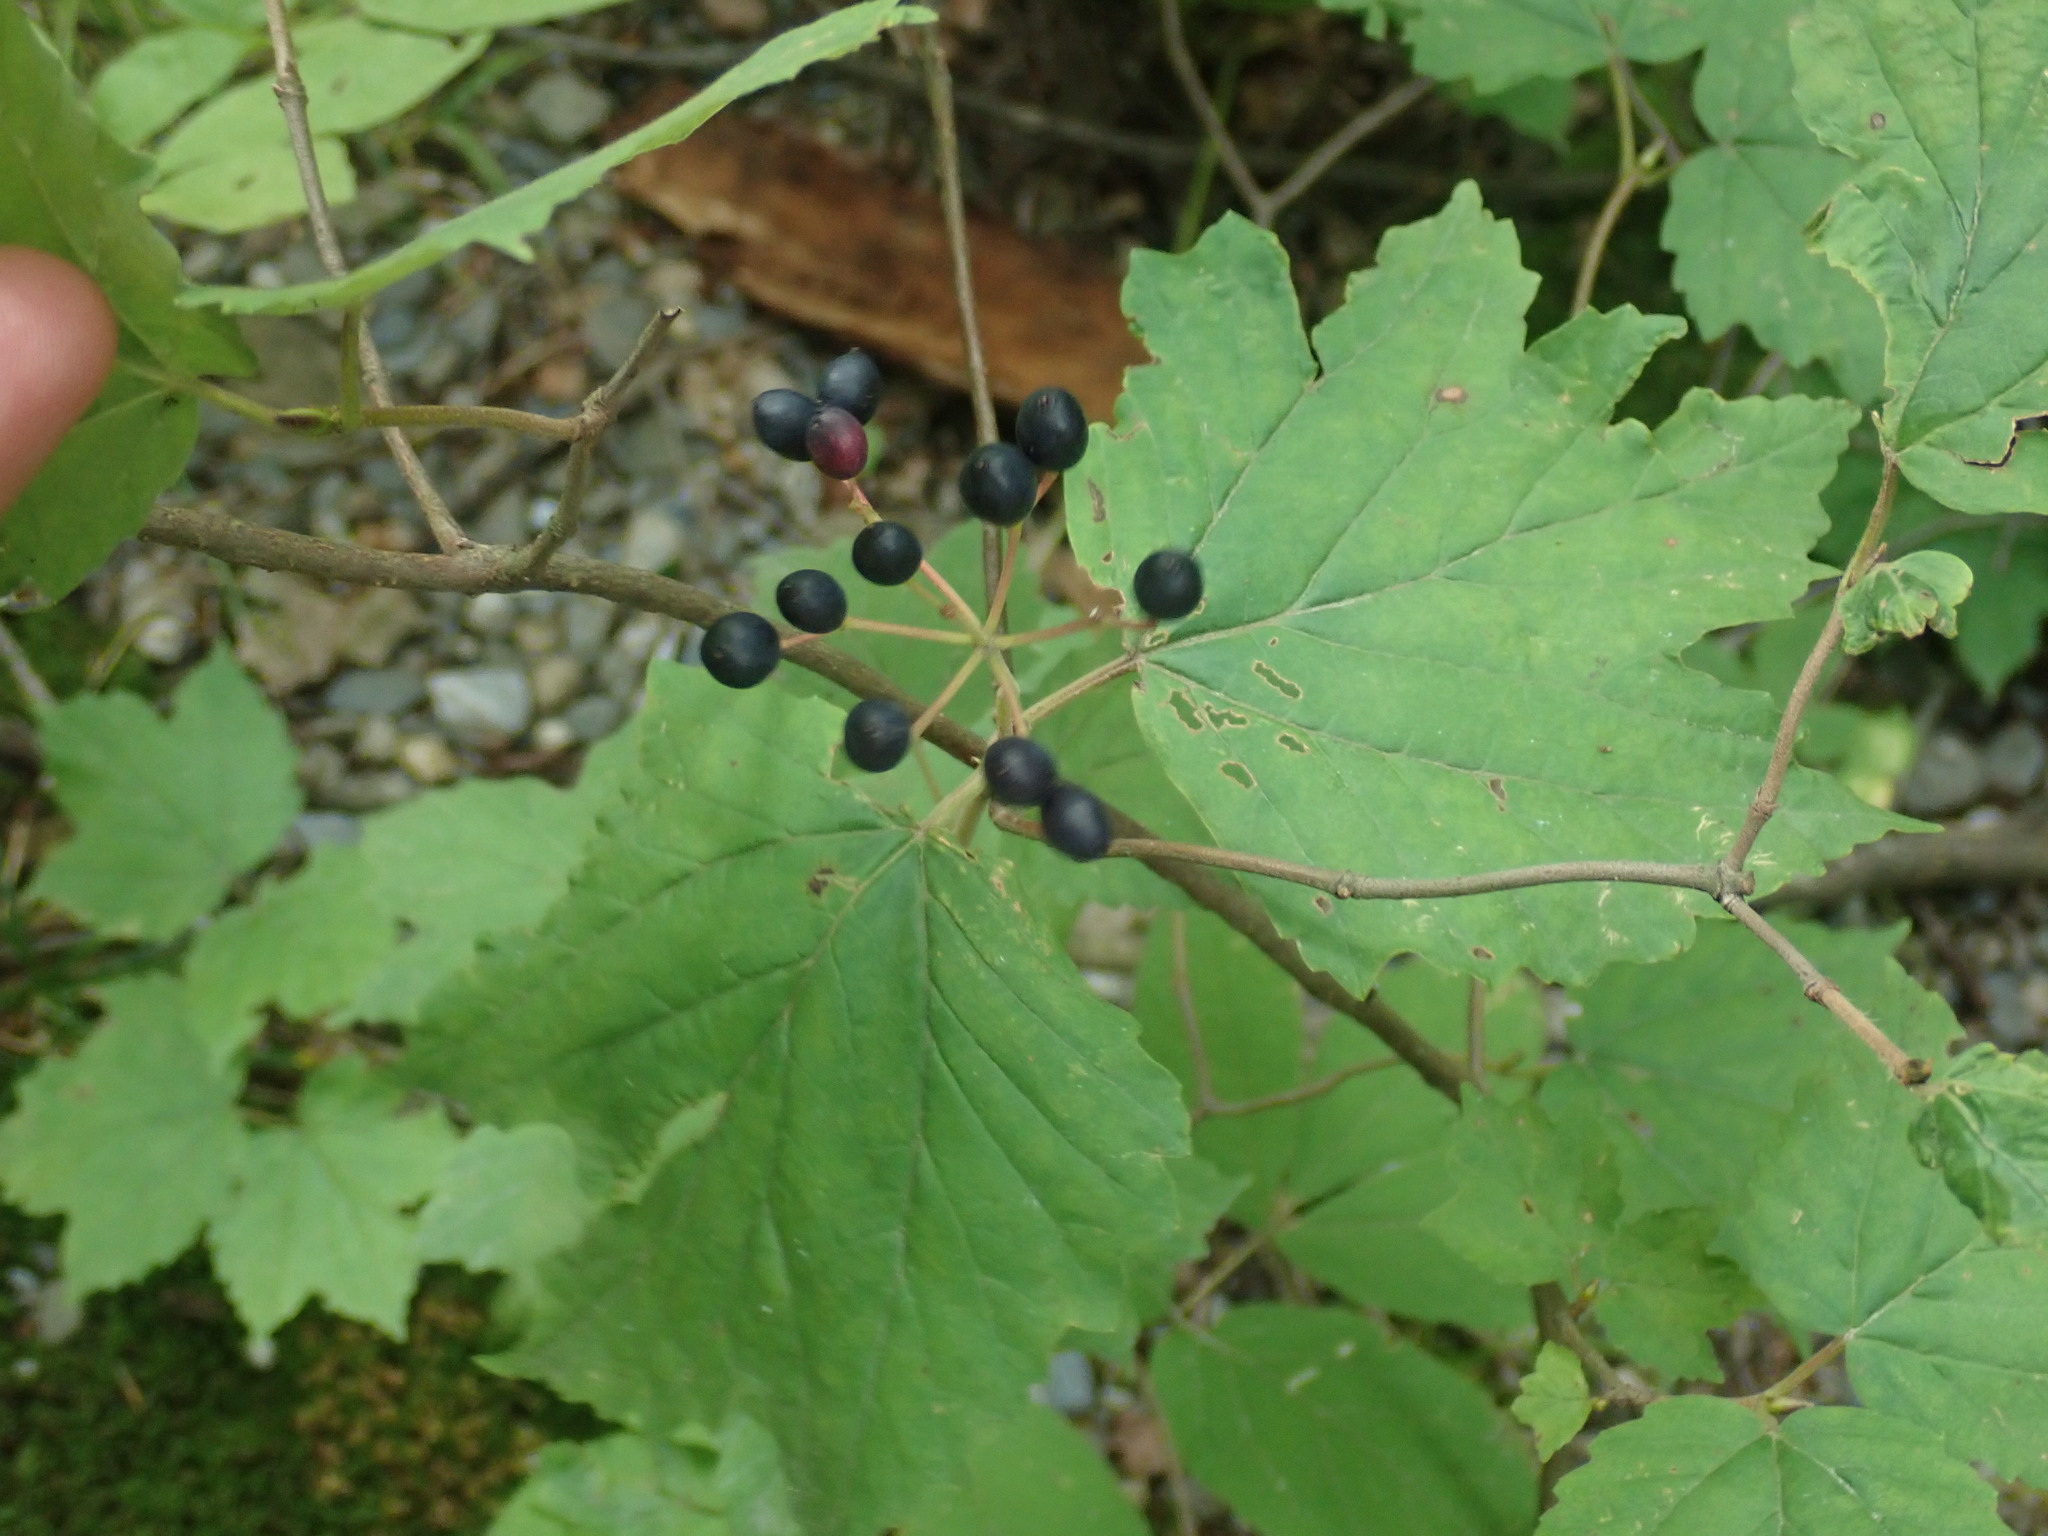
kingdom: Plantae
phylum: Tracheophyta
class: Magnoliopsida
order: Dipsacales
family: Viburnaceae
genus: Viburnum
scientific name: Viburnum acerifolium
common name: Dockmackie
